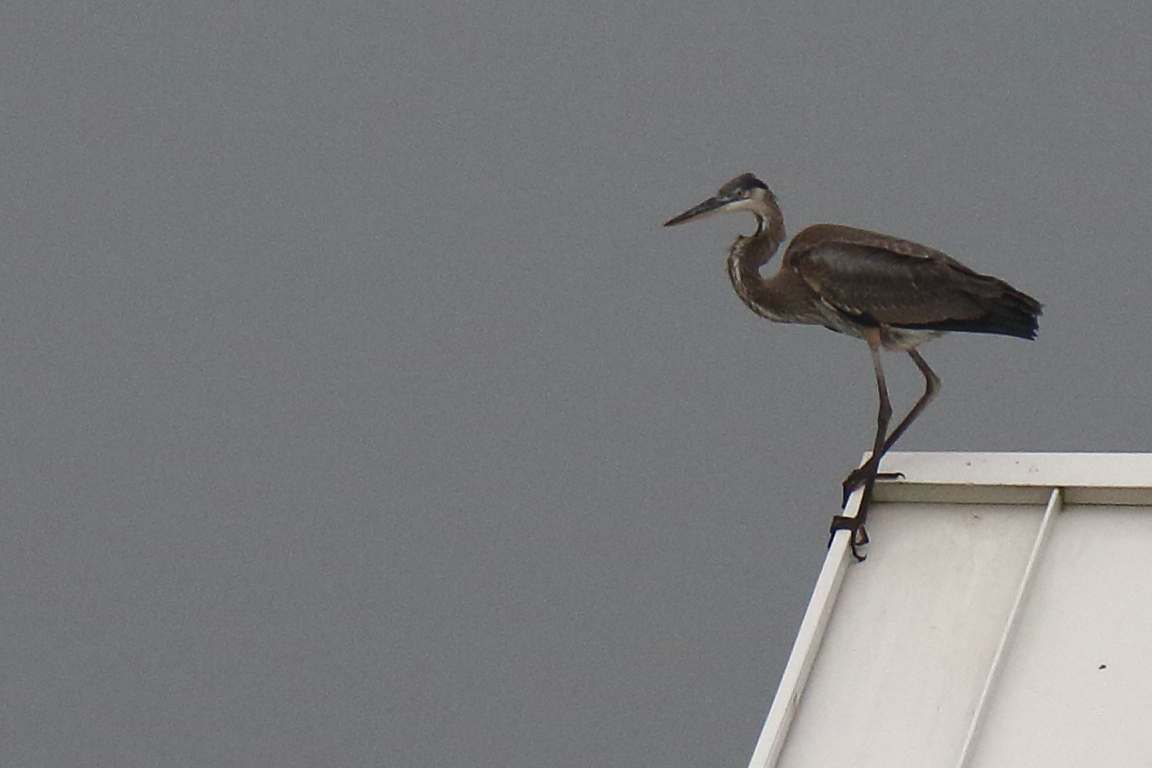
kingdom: Animalia
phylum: Chordata
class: Aves
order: Pelecaniformes
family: Ardeidae
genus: Ardea
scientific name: Ardea herodias
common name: Great blue heron
